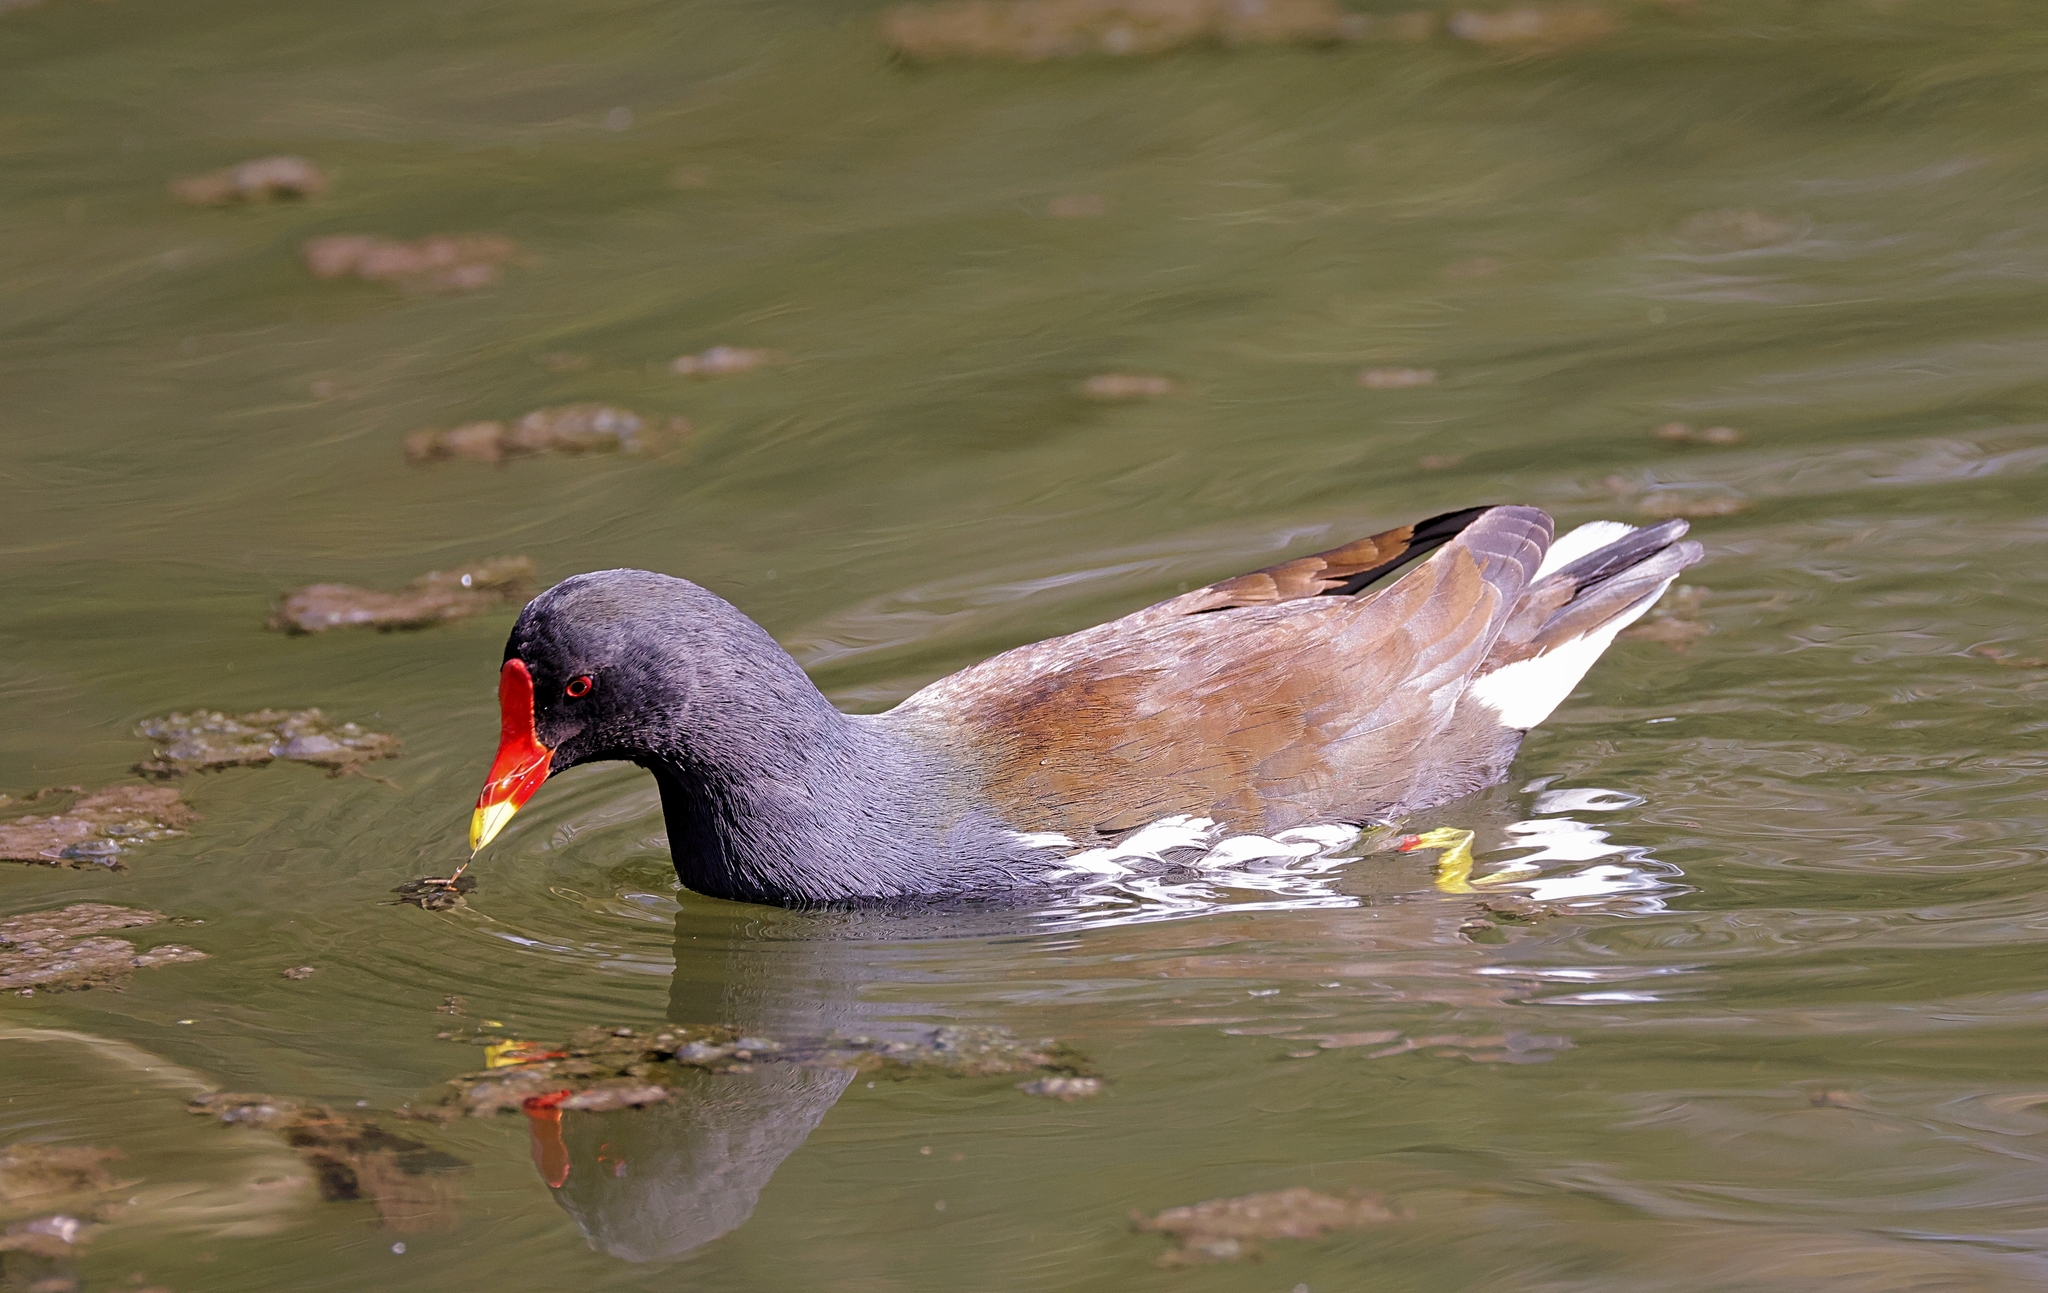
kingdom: Animalia
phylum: Chordata
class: Aves
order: Gruiformes
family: Rallidae
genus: Gallinula
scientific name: Gallinula chloropus
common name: Common moorhen
